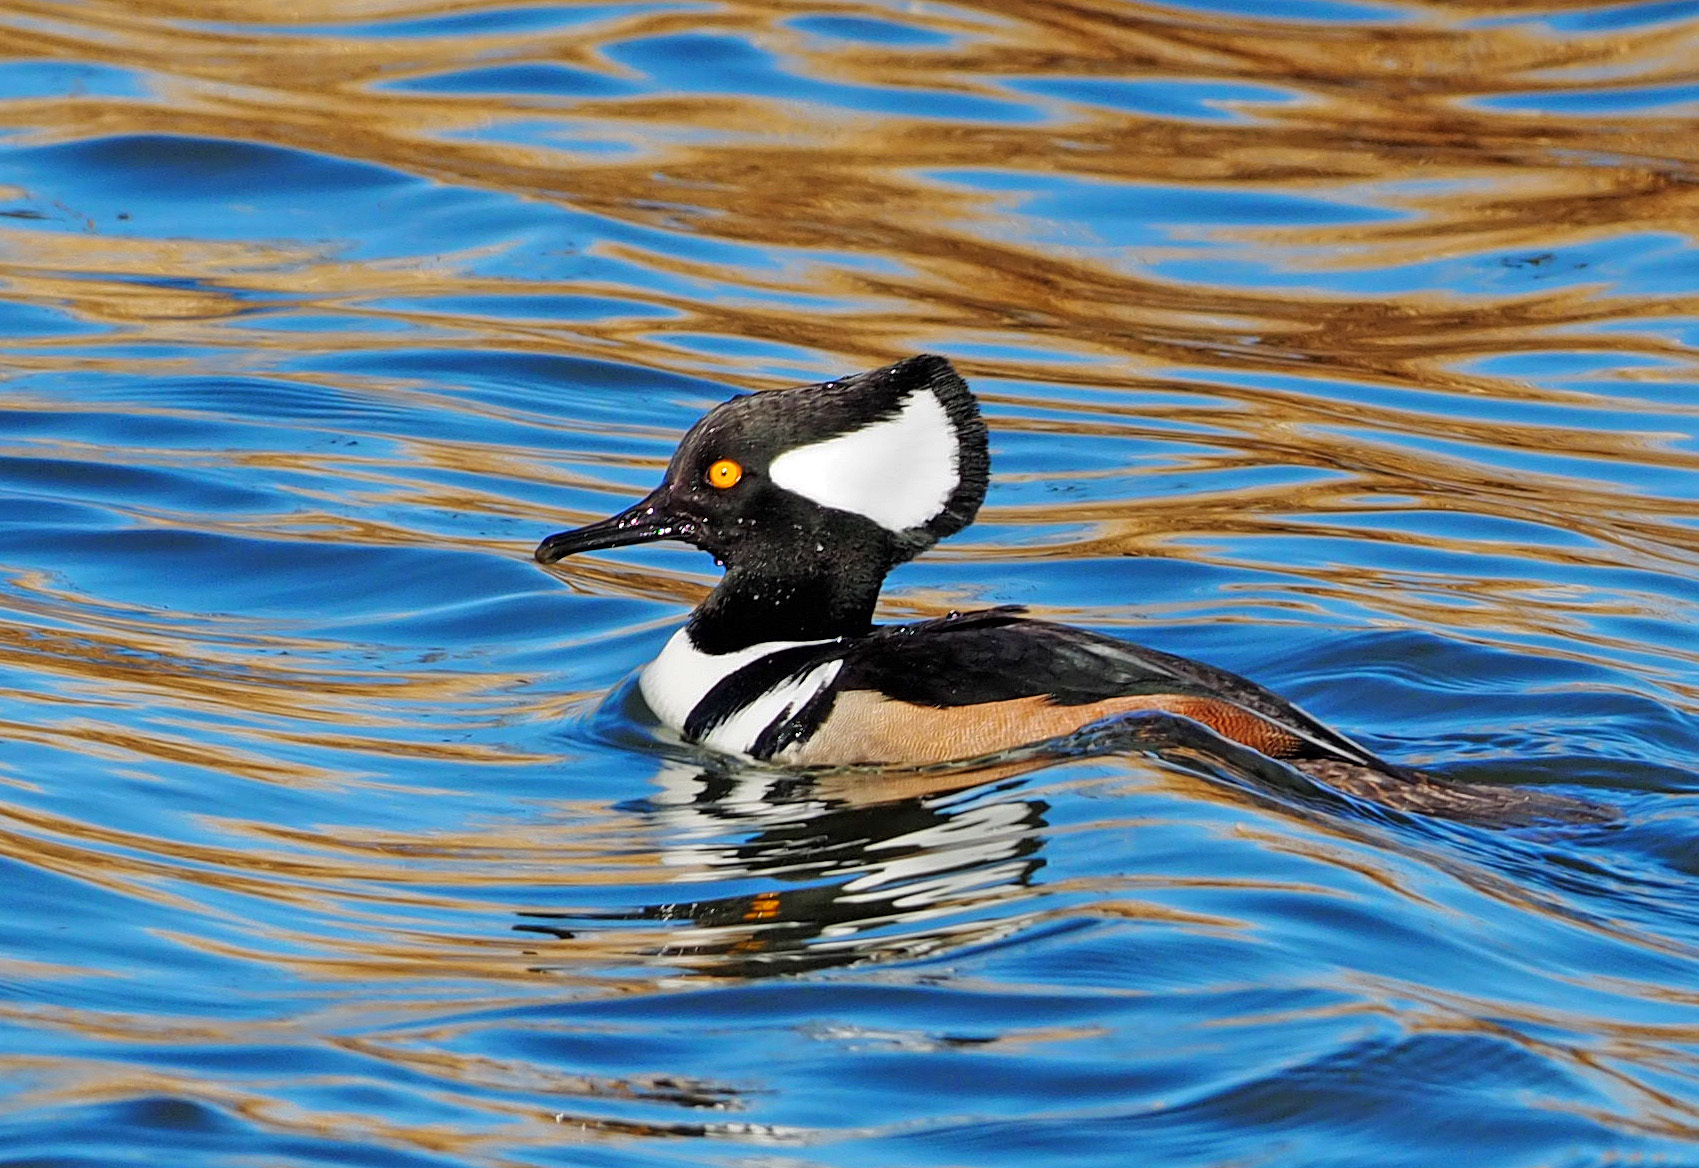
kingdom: Animalia
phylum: Chordata
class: Aves
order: Anseriformes
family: Anatidae
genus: Lophodytes
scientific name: Lophodytes cucullatus
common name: Hooded merganser
